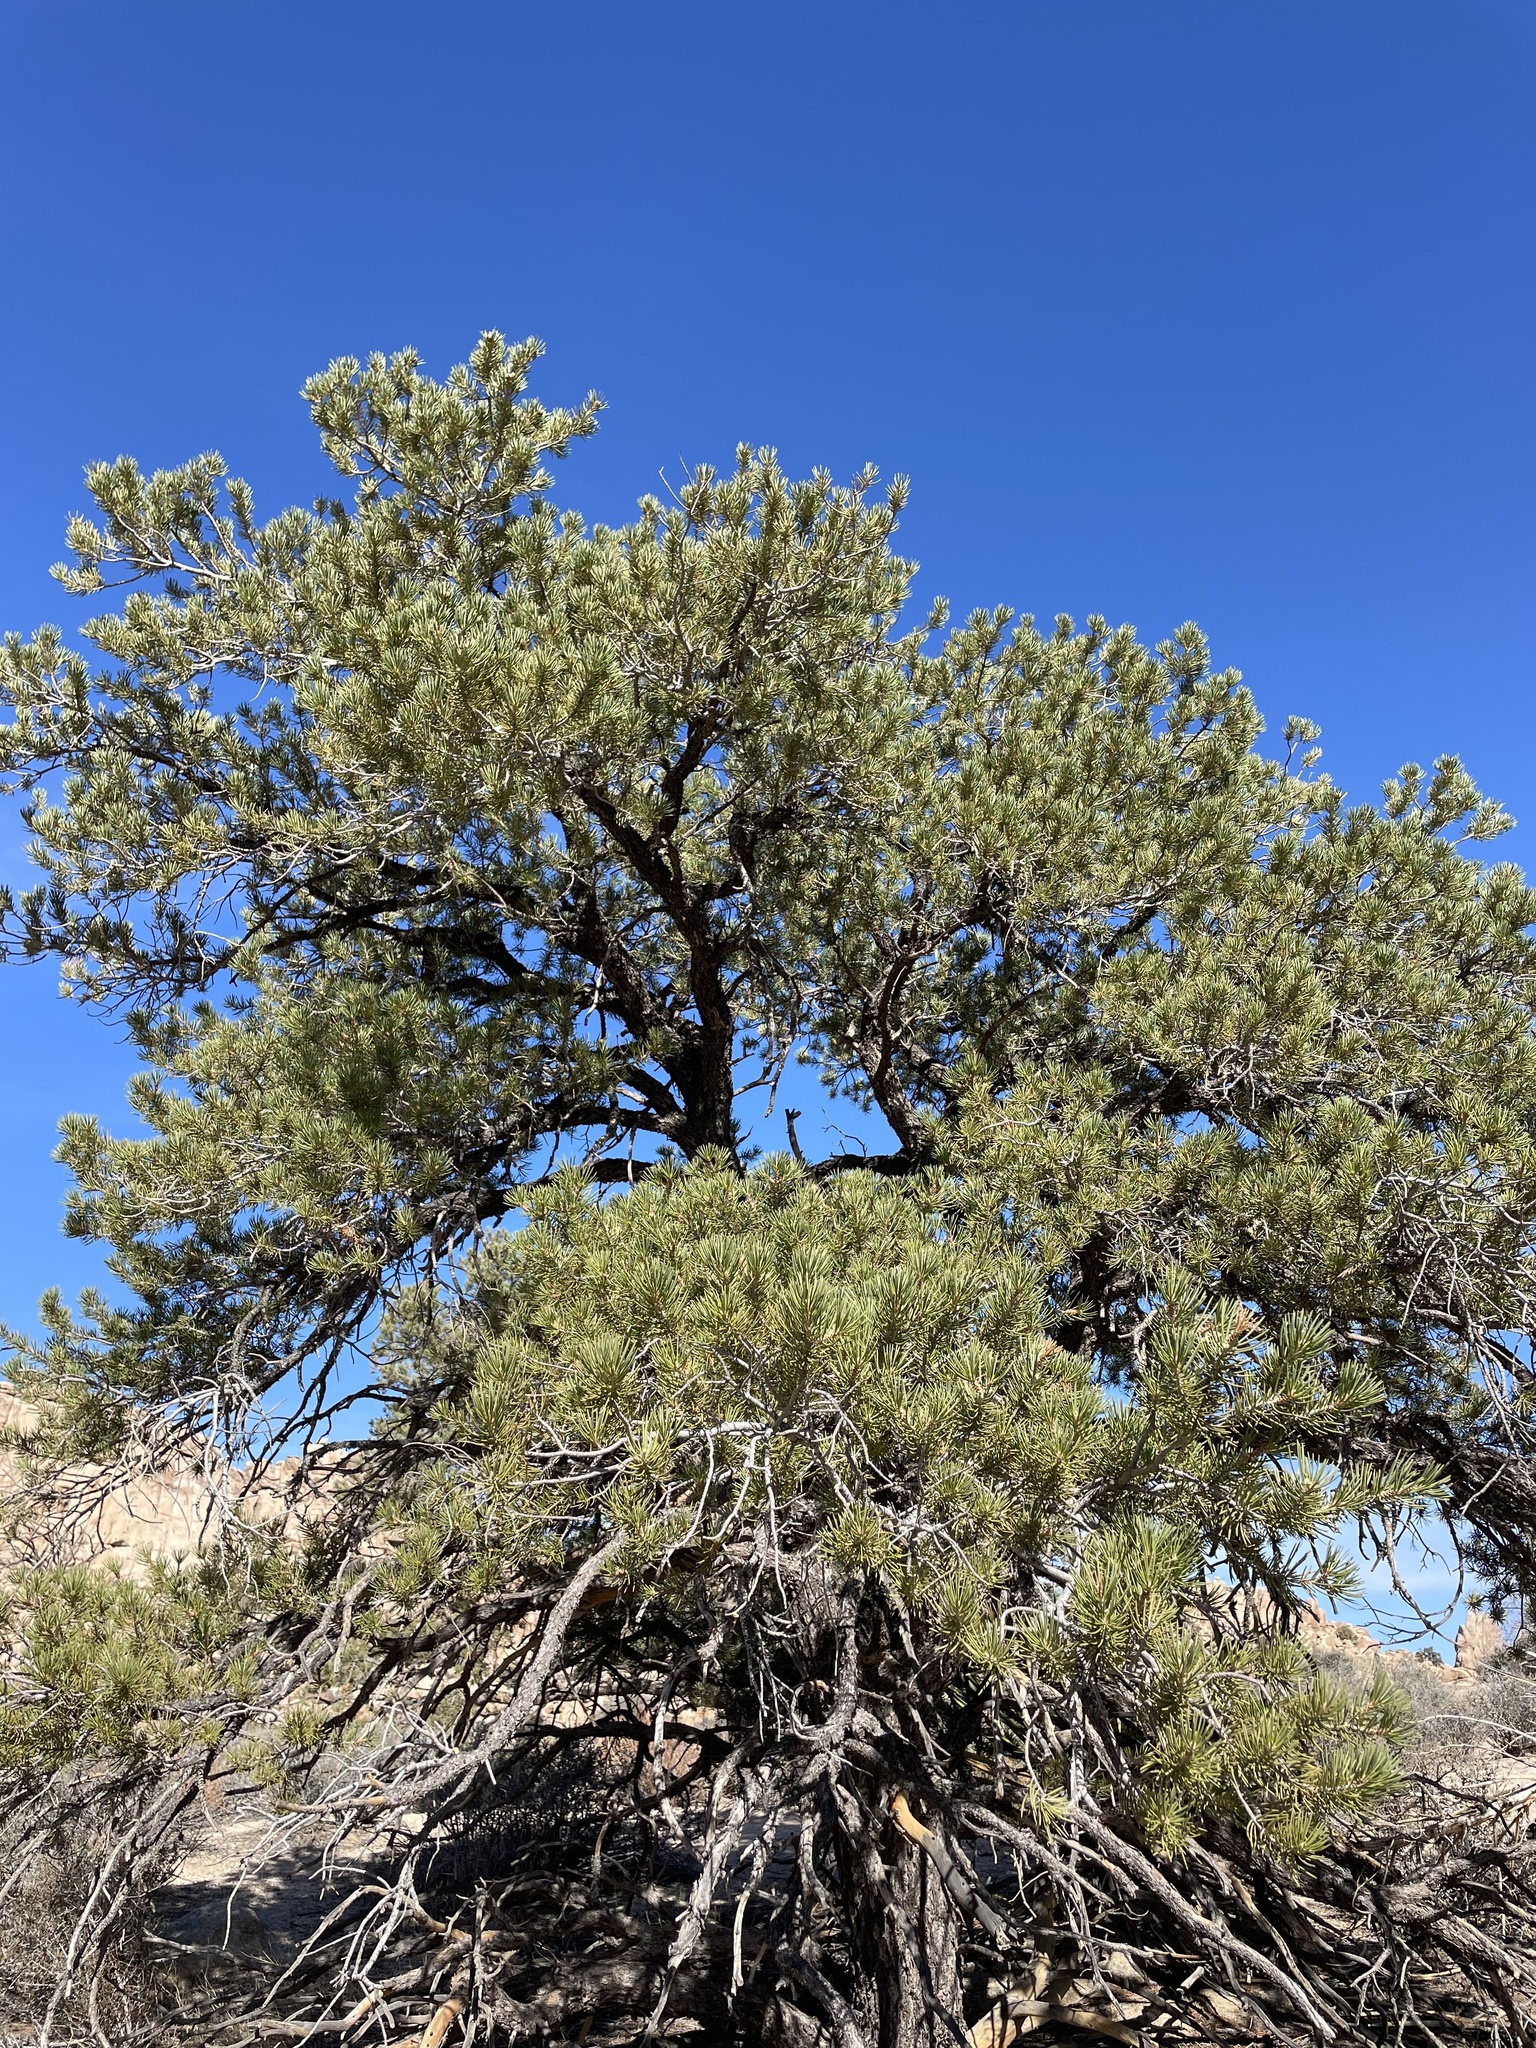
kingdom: Plantae
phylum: Tracheophyta
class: Pinopsida
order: Pinales
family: Pinaceae
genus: Pinus
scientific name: Pinus monophylla
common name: One-leaved nut pine
